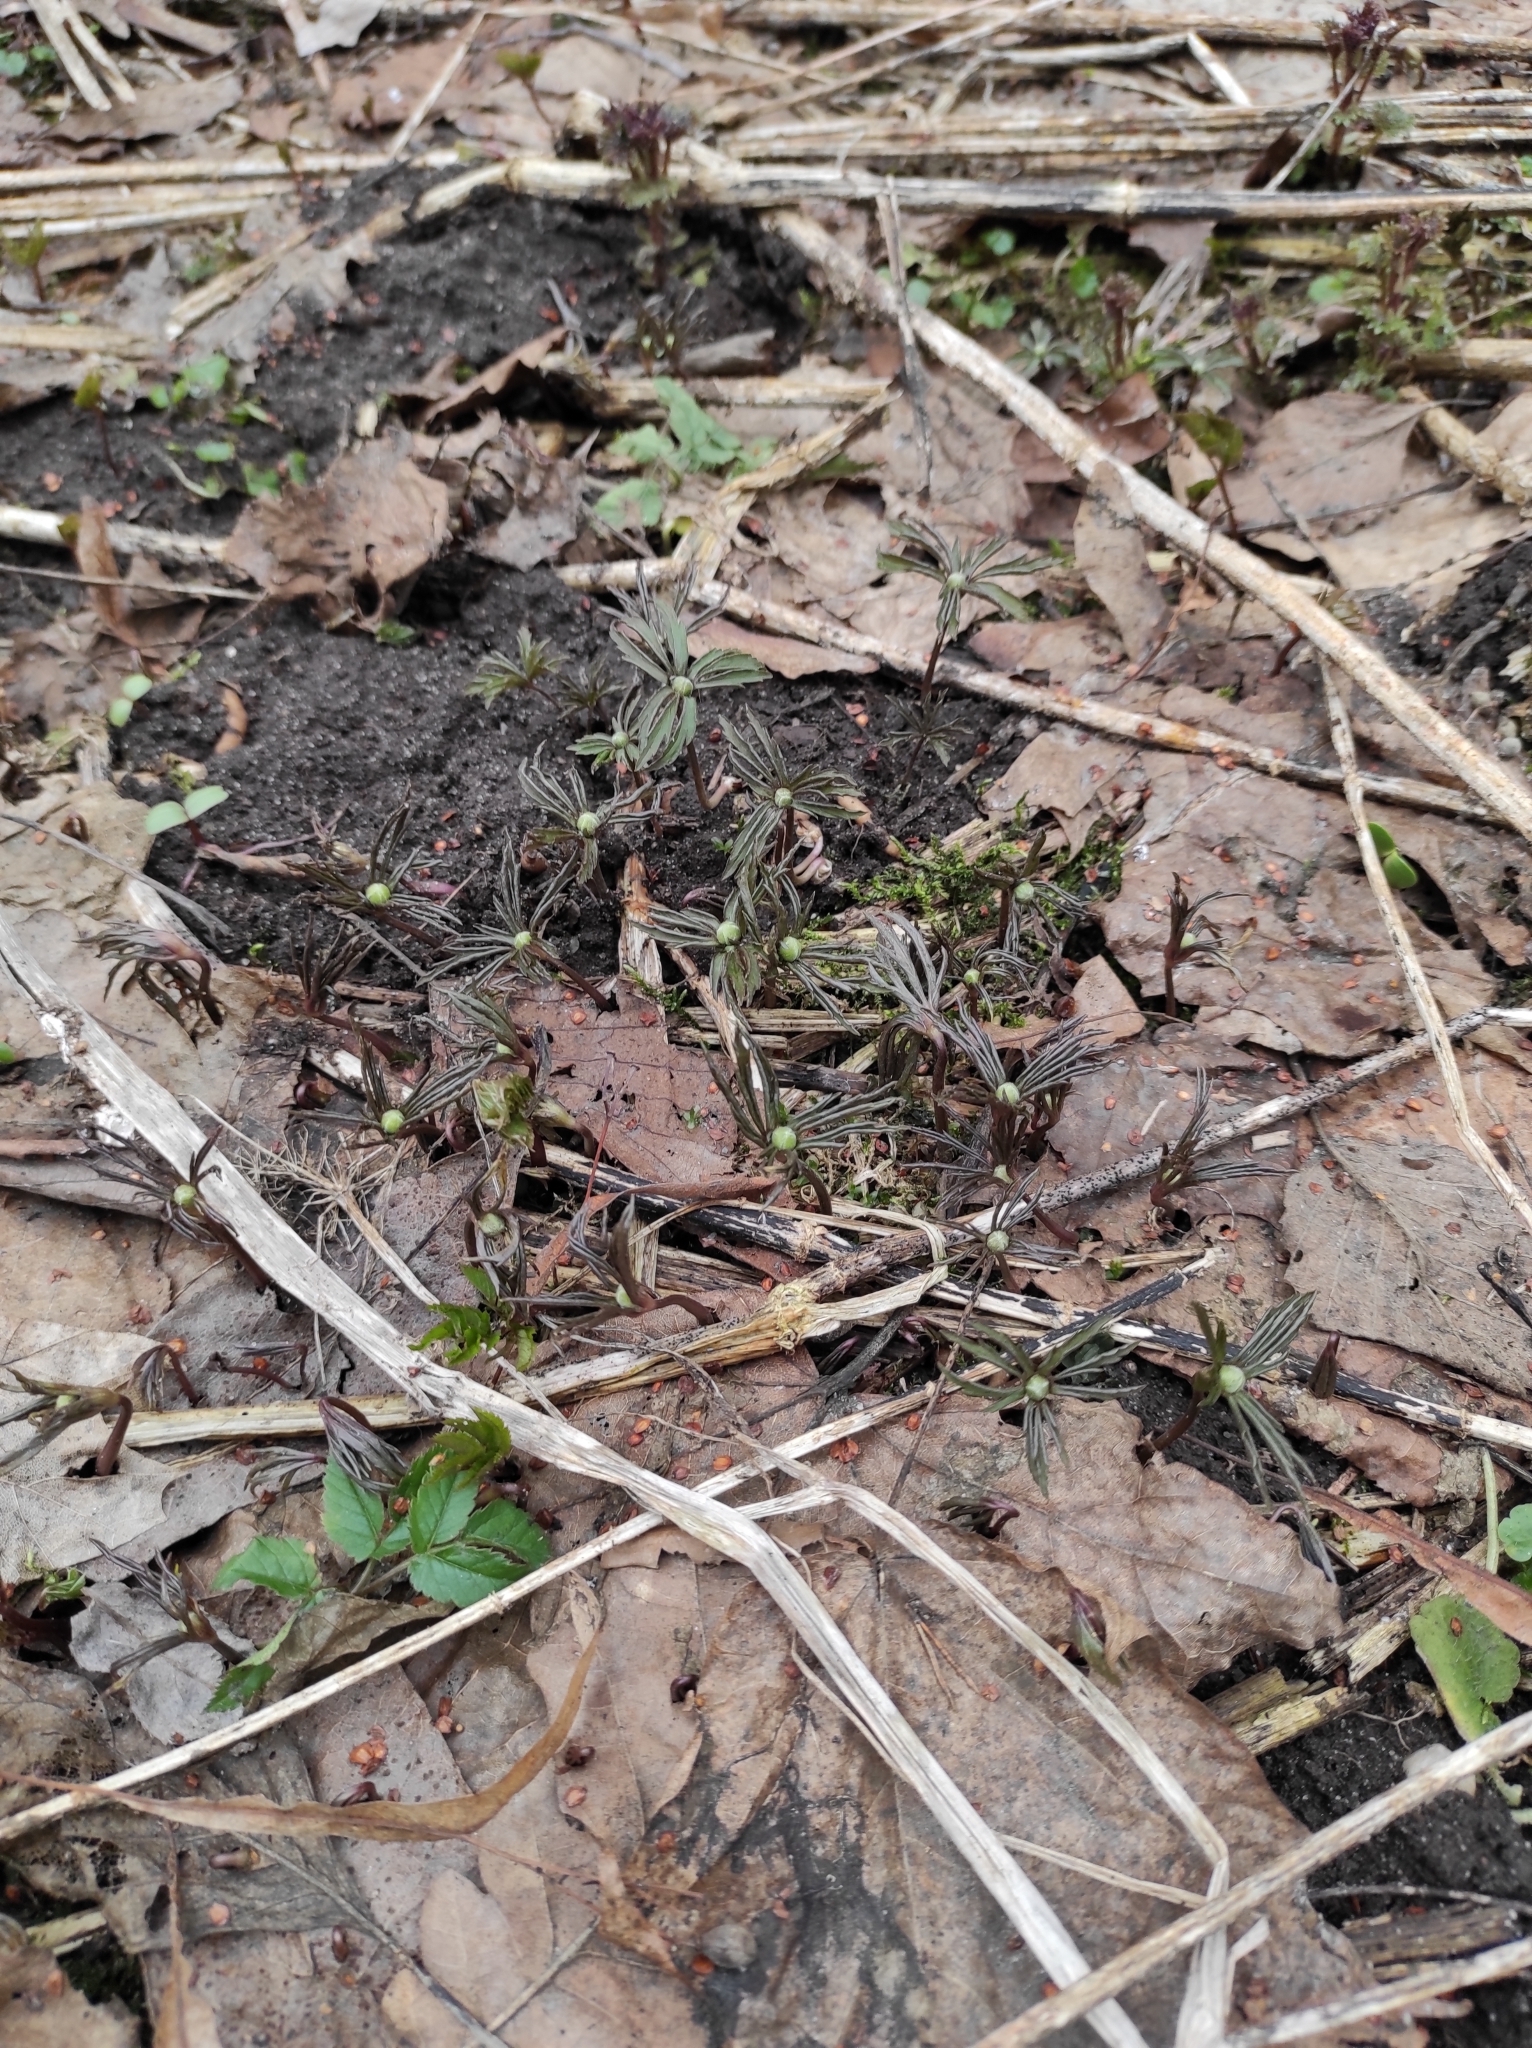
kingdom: Plantae
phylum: Tracheophyta
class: Magnoliopsida
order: Ranunculales
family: Ranunculaceae
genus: Anemone
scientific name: Anemone ranunculoides
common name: Yellow anemone
